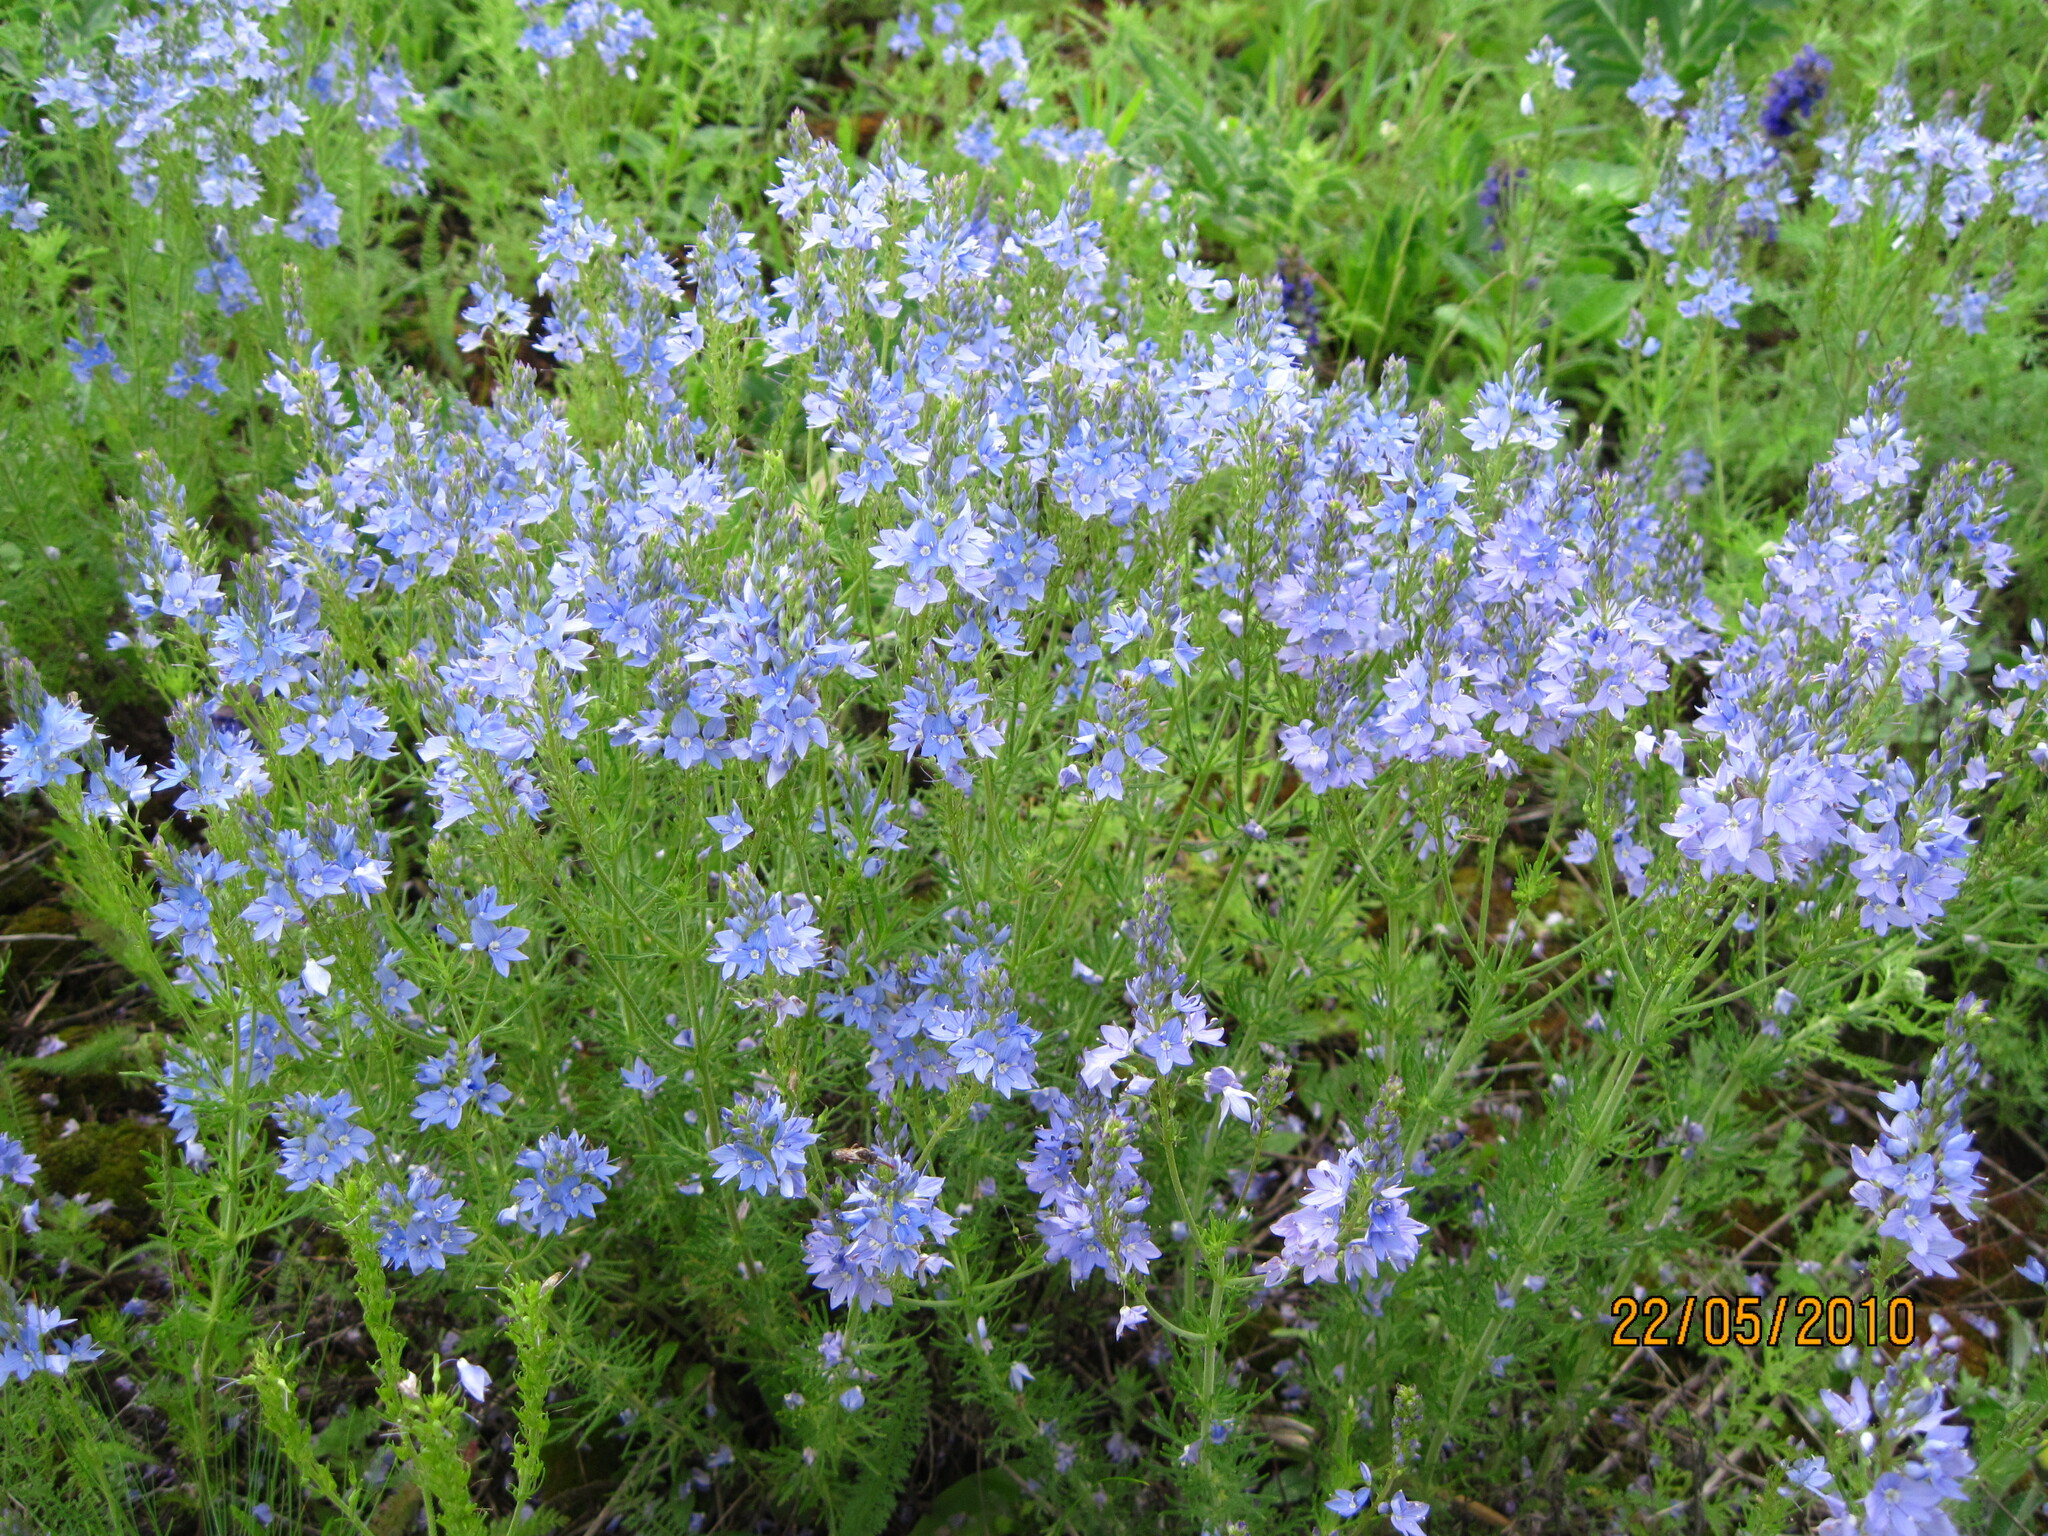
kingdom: Plantae
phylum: Tracheophyta
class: Magnoliopsida
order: Lamiales
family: Plantaginaceae
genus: Veronica
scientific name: Veronica austriaca
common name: Large speedwell
